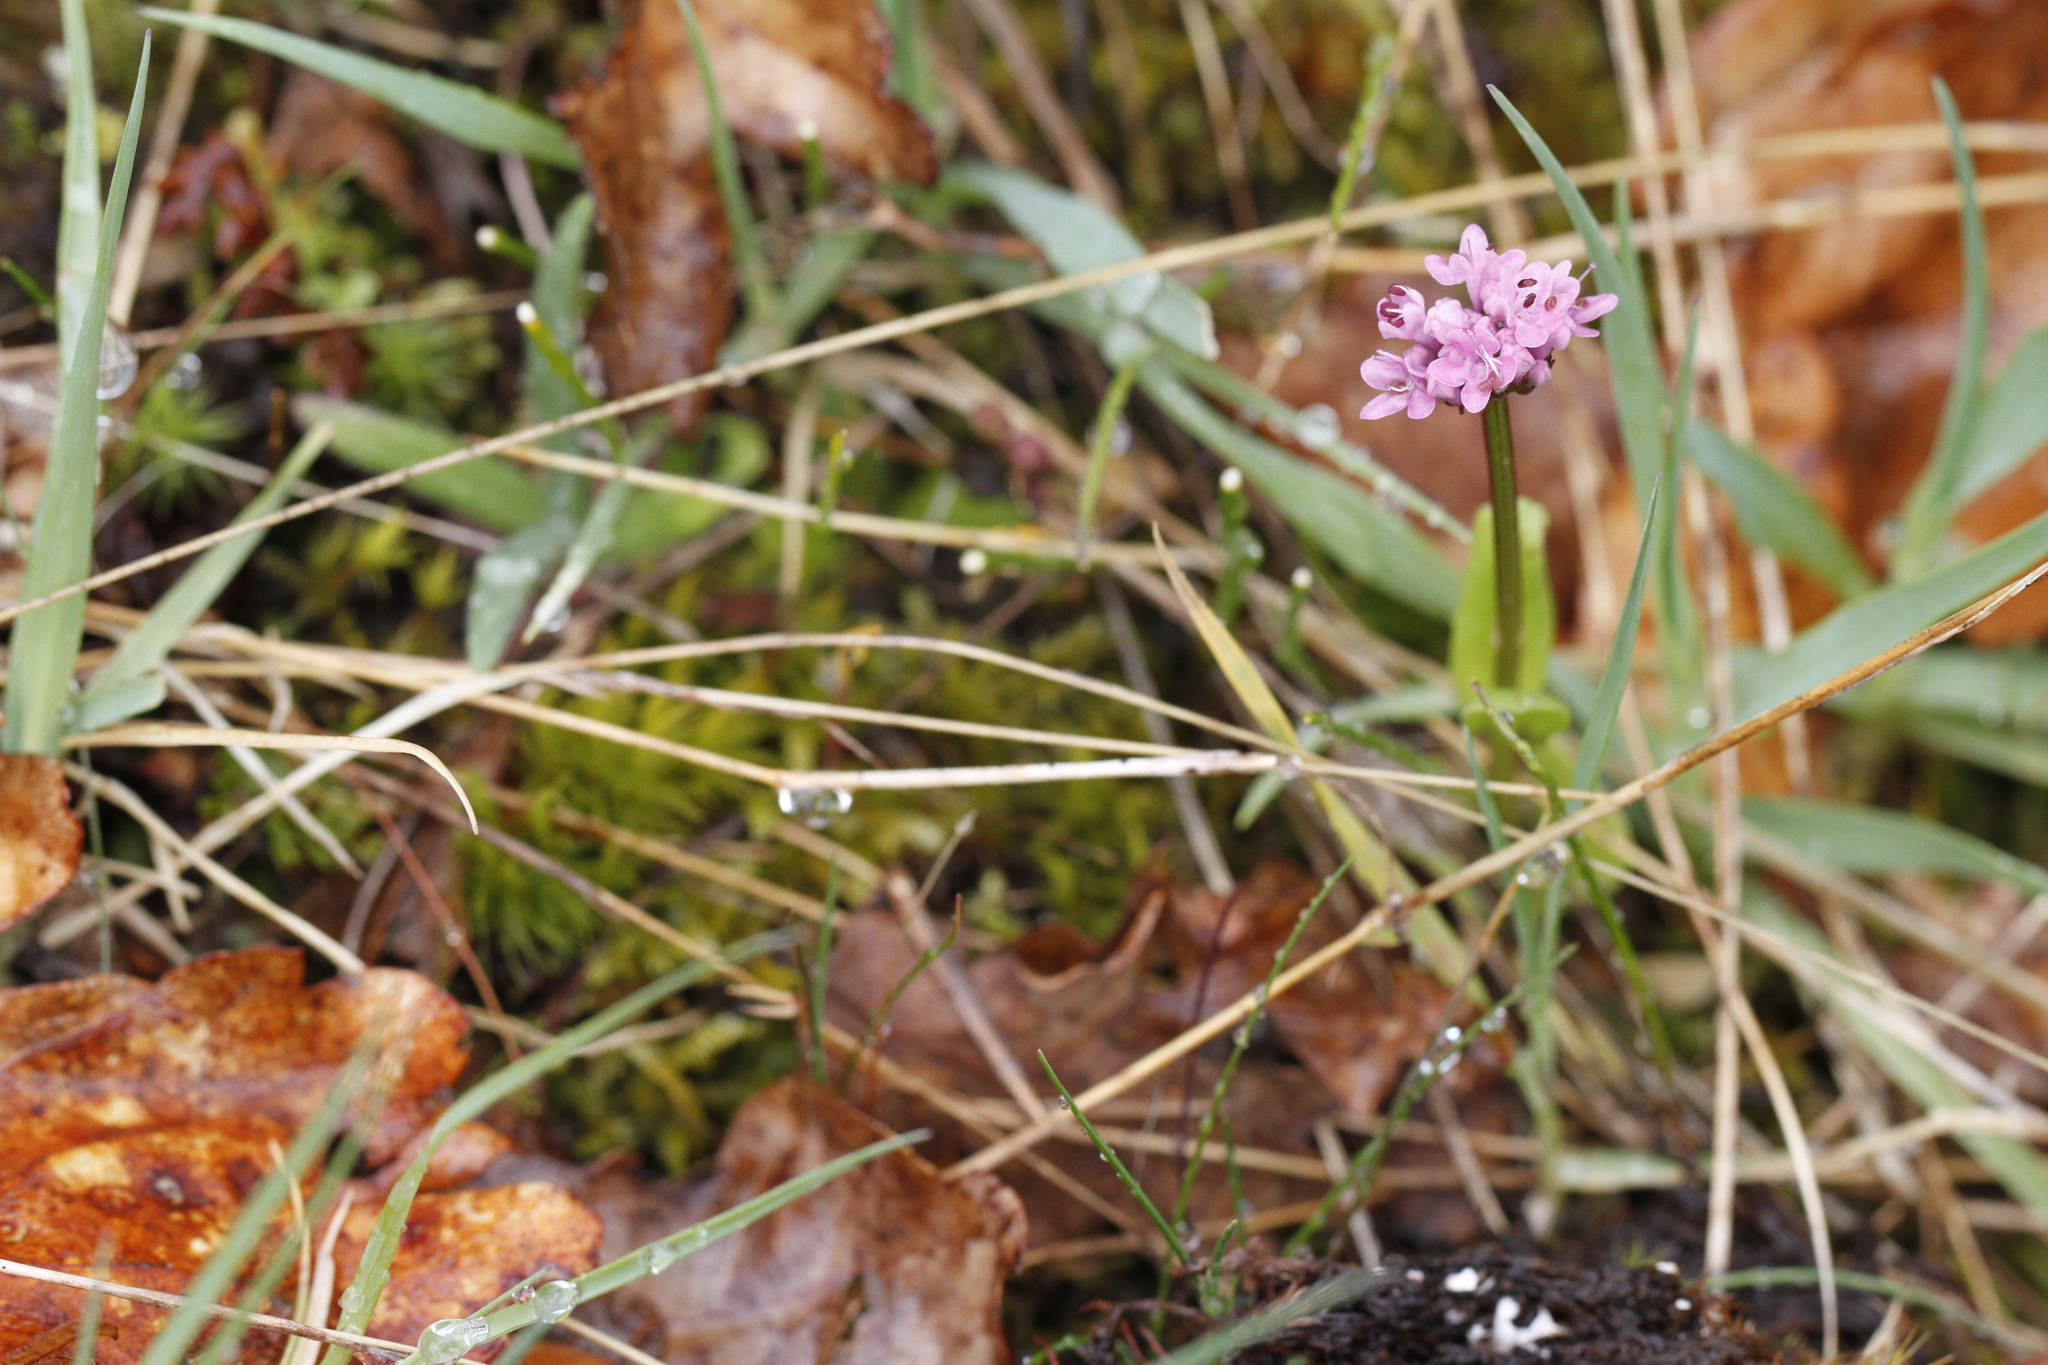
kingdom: Plantae
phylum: Tracheophyta
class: Magnoliopsida
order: Dipsacales
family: Caprifoliaceae
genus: Plectritis
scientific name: Plectritis congesta
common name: Pink plectritis
